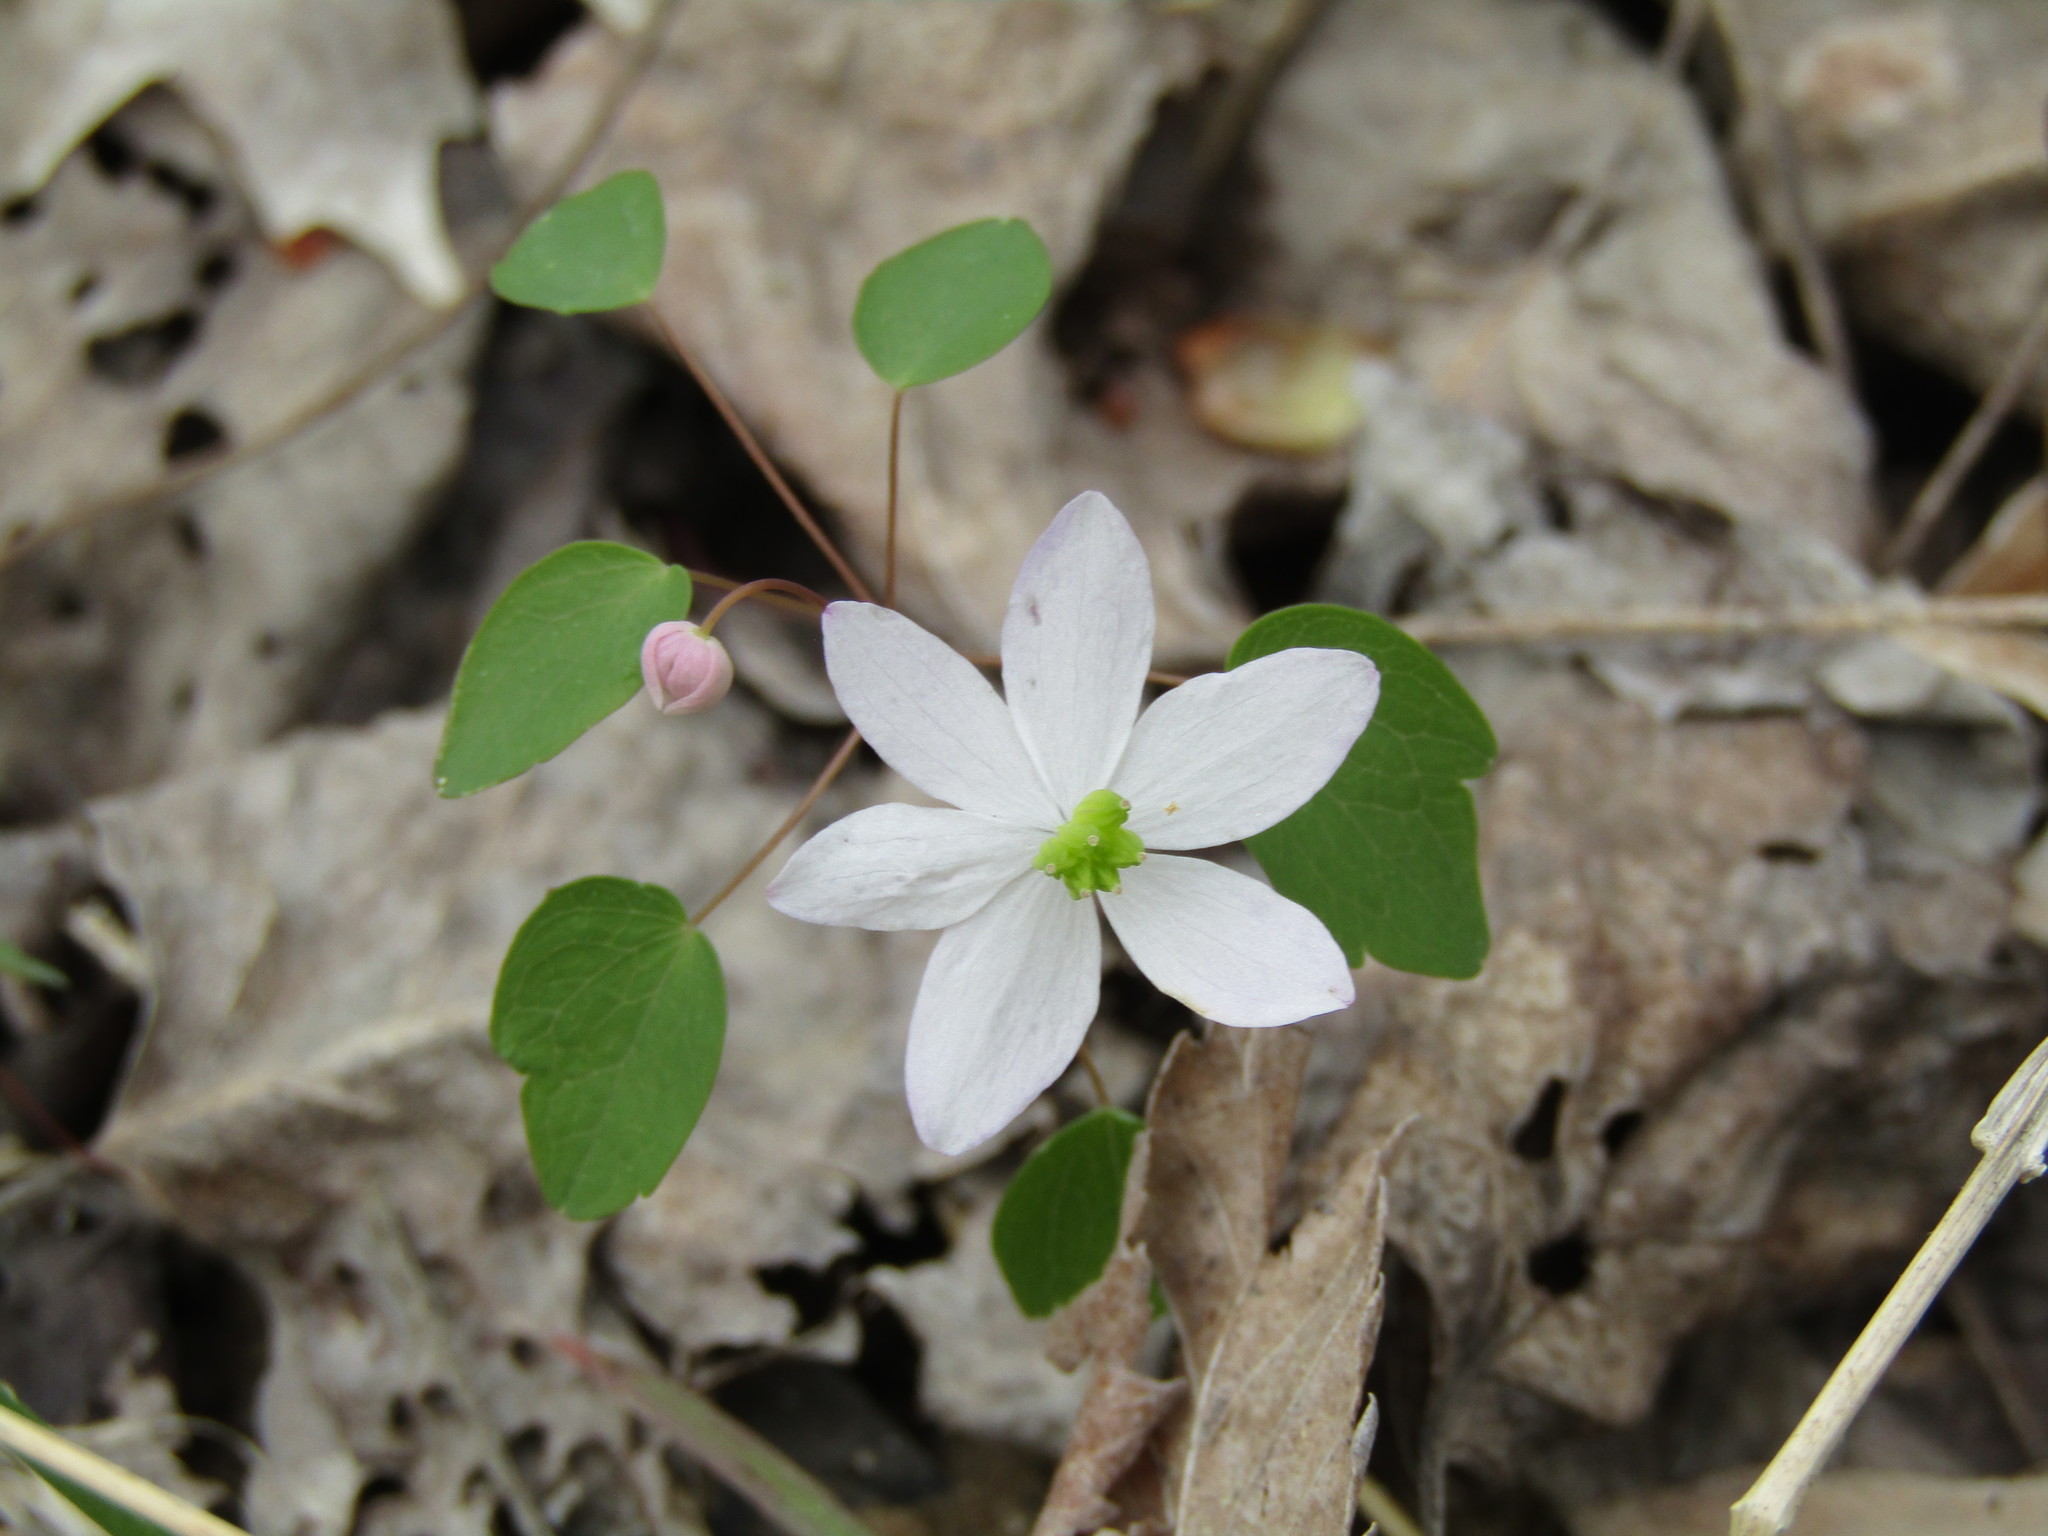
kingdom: Plantae
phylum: Tracheophyta
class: Magnoliopsida
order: Ranunculales
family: Ranunculaceae
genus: Thalictrum
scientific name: Thalictrum thalictroides
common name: Rue-anemone
